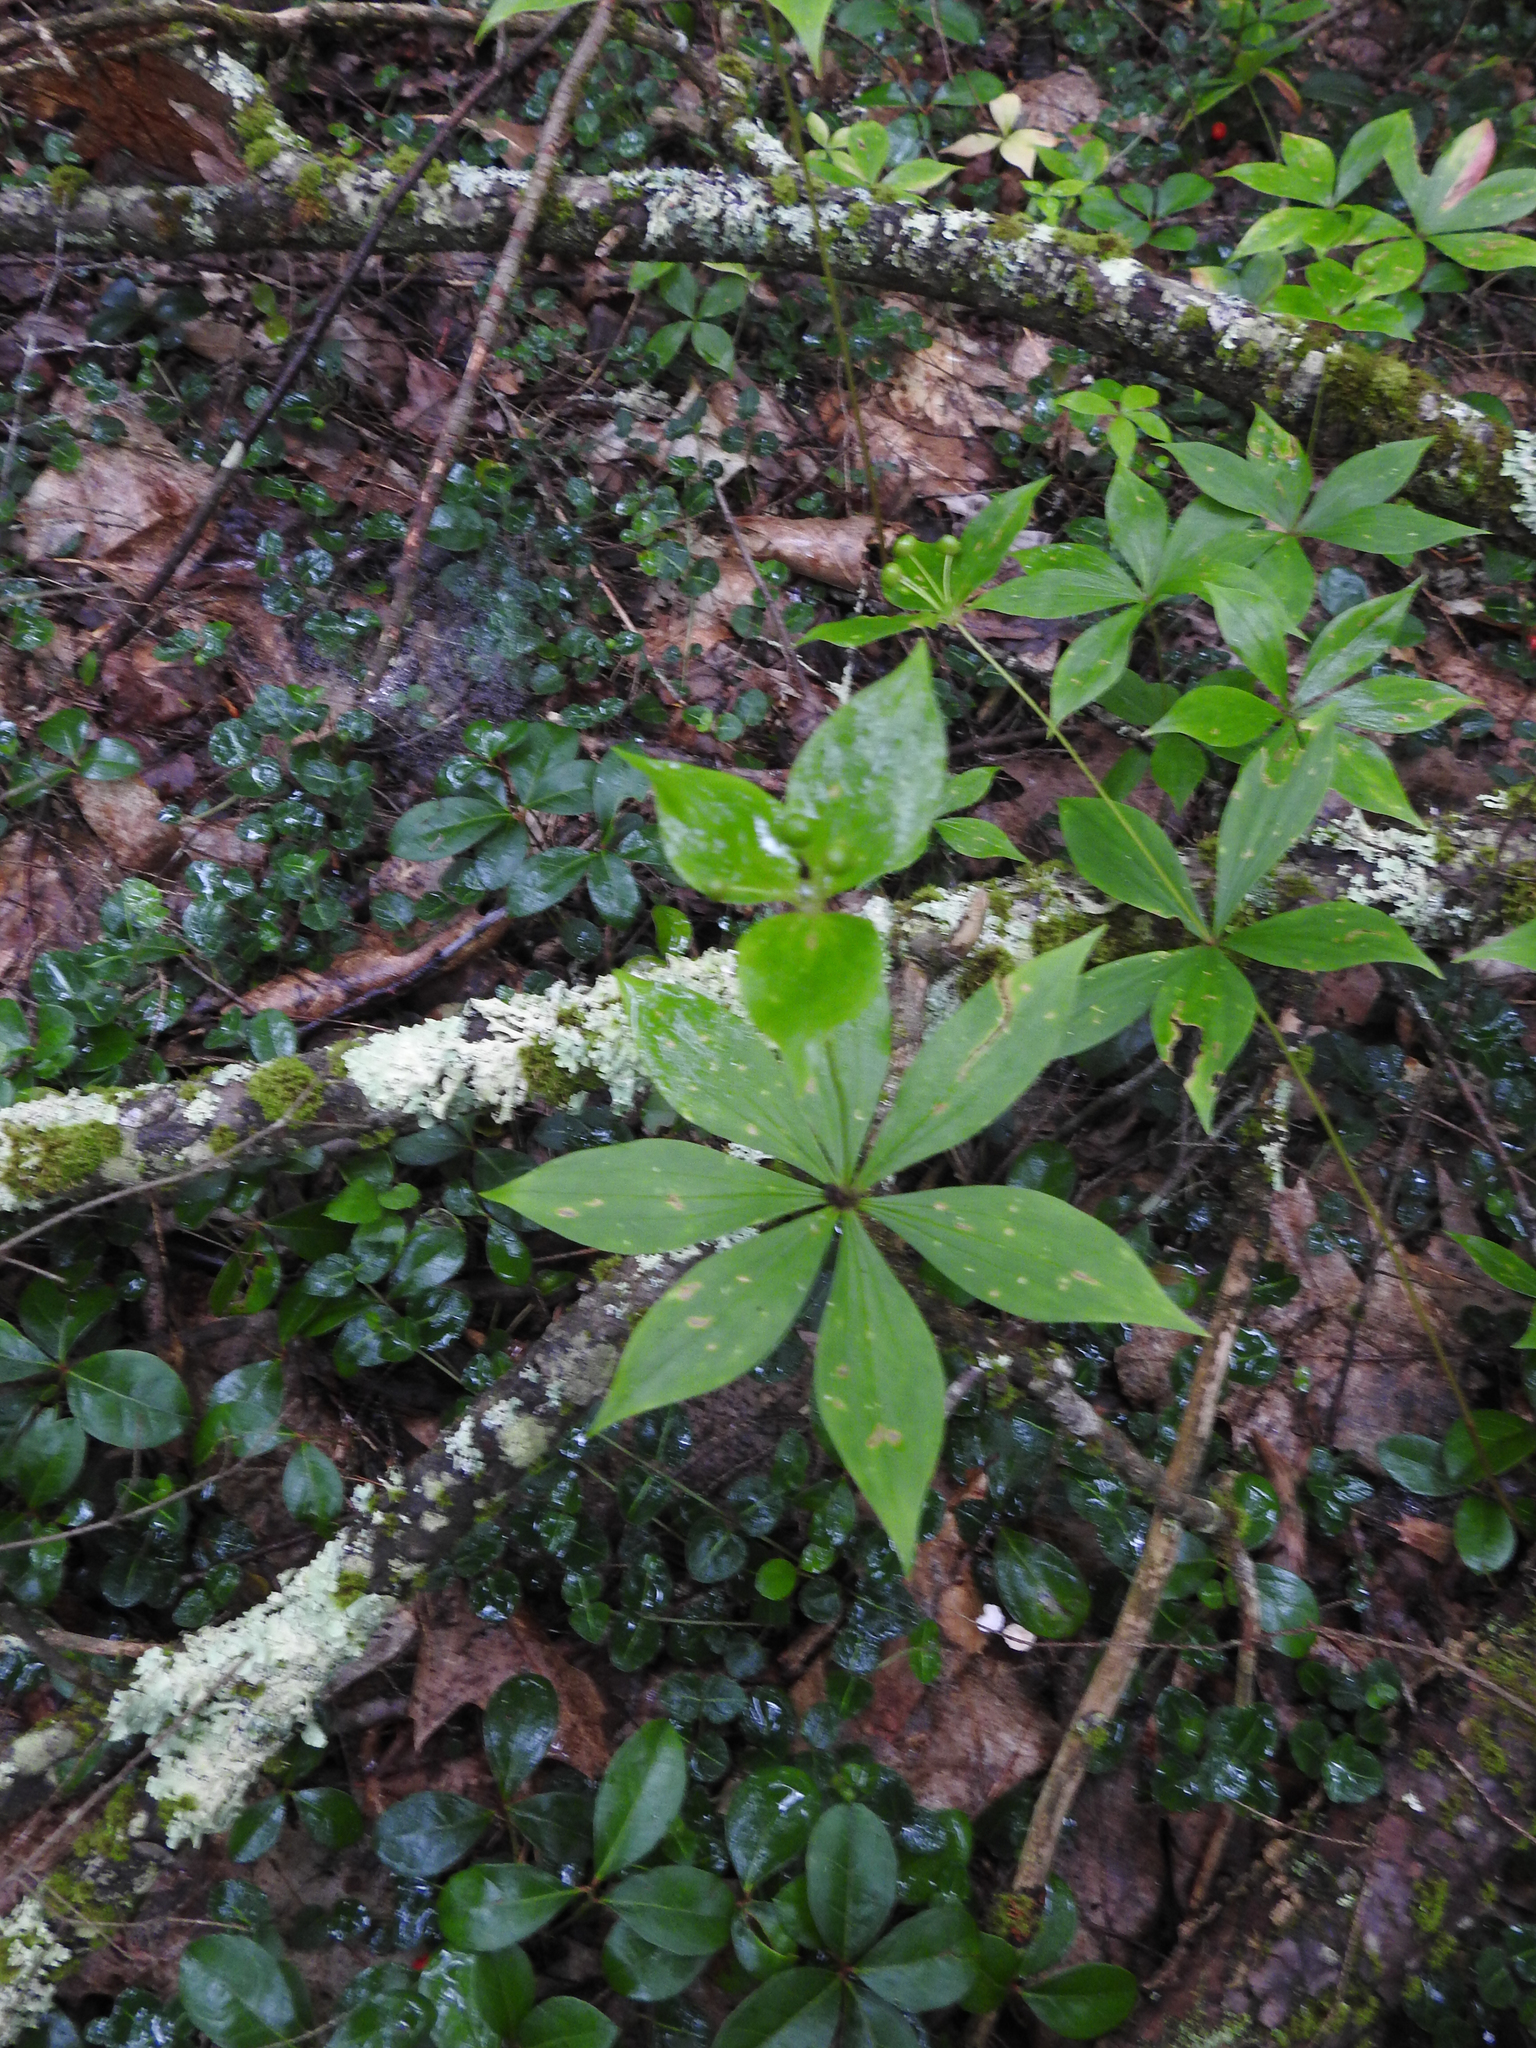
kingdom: Plantae
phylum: Tracheophyta
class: Liliopsida
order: Liliales
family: Liliaceae
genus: Medeola
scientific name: Medeola virginiana
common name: Indian cucumber-root
